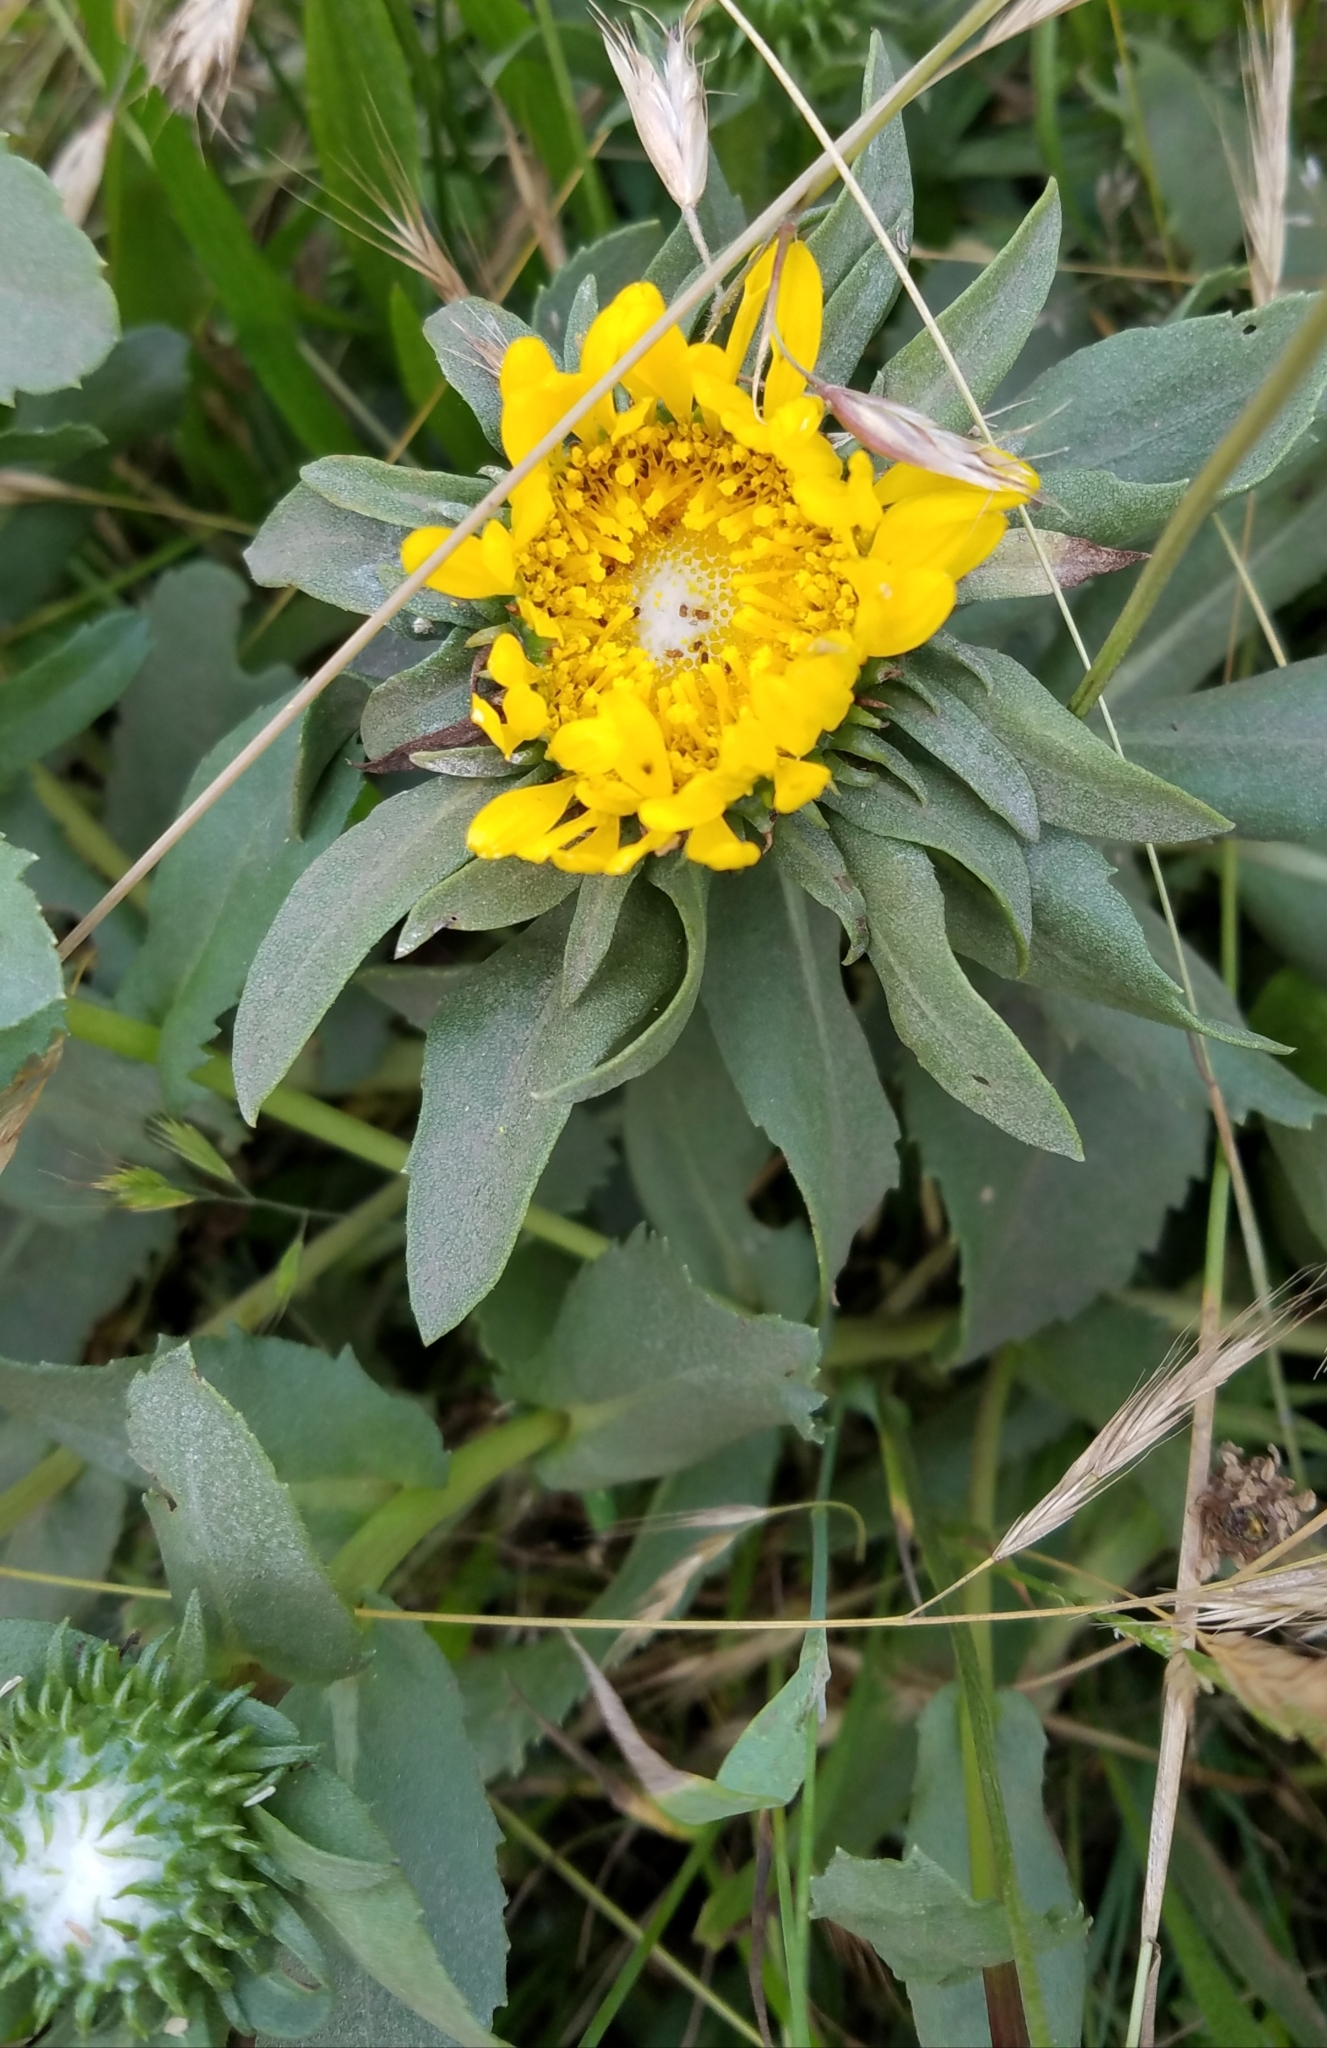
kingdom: Plantae
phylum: Tracheophyta
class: Magnoliopsida
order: Asterales
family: Asteraceae
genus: Grindelia
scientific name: Grindelia hirsutula
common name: Hairy gumweed
